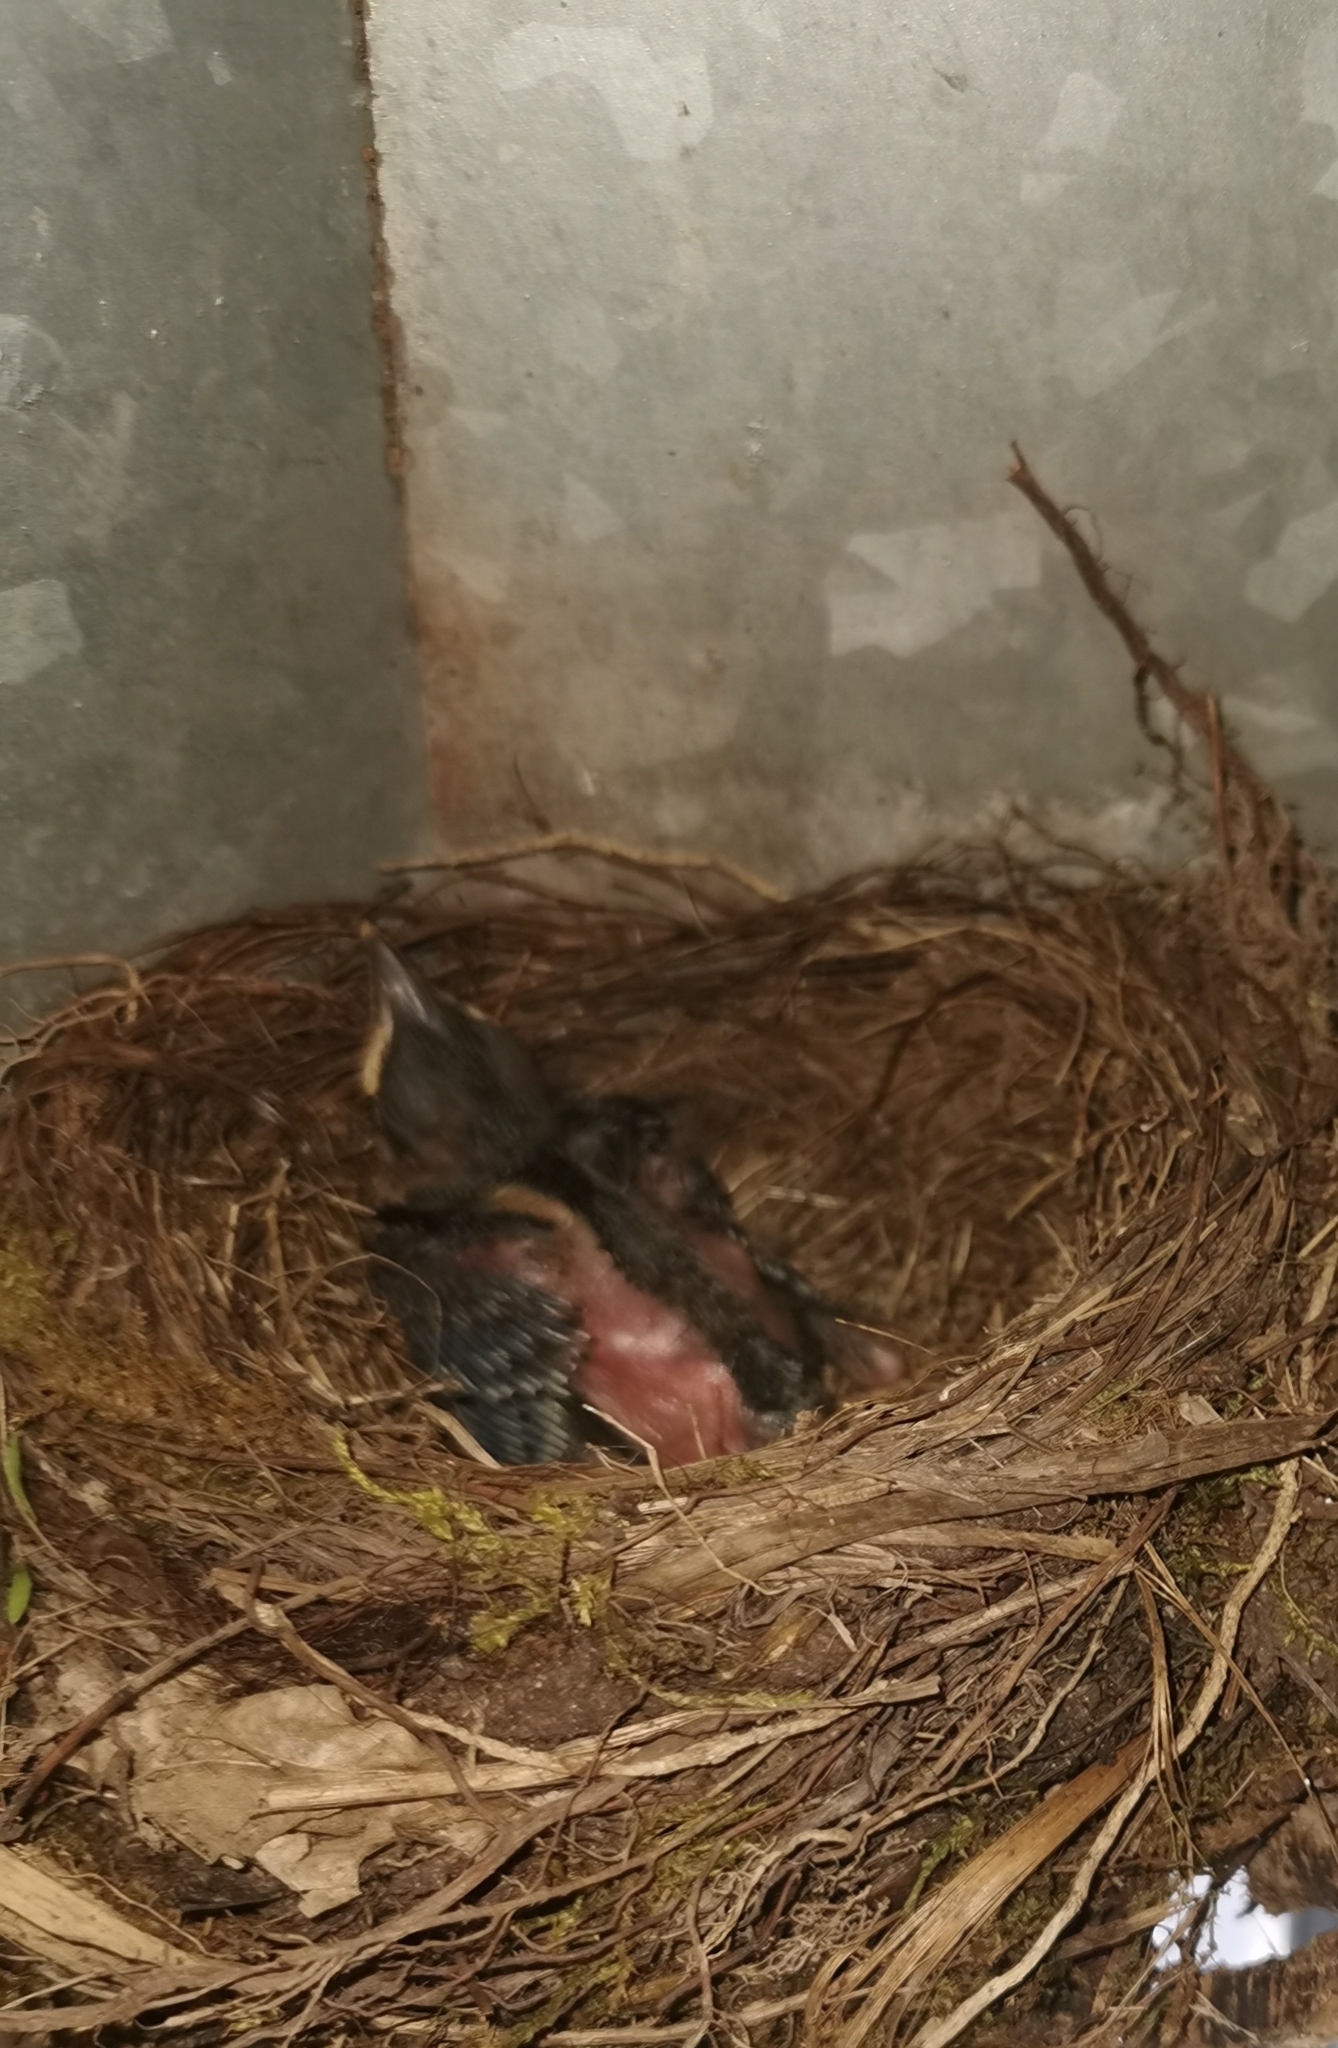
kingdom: Animalia
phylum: Chordata
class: Aves
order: Passeriformes
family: Turdidae
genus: Turdus
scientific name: Turdus merula
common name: Common blackbird
